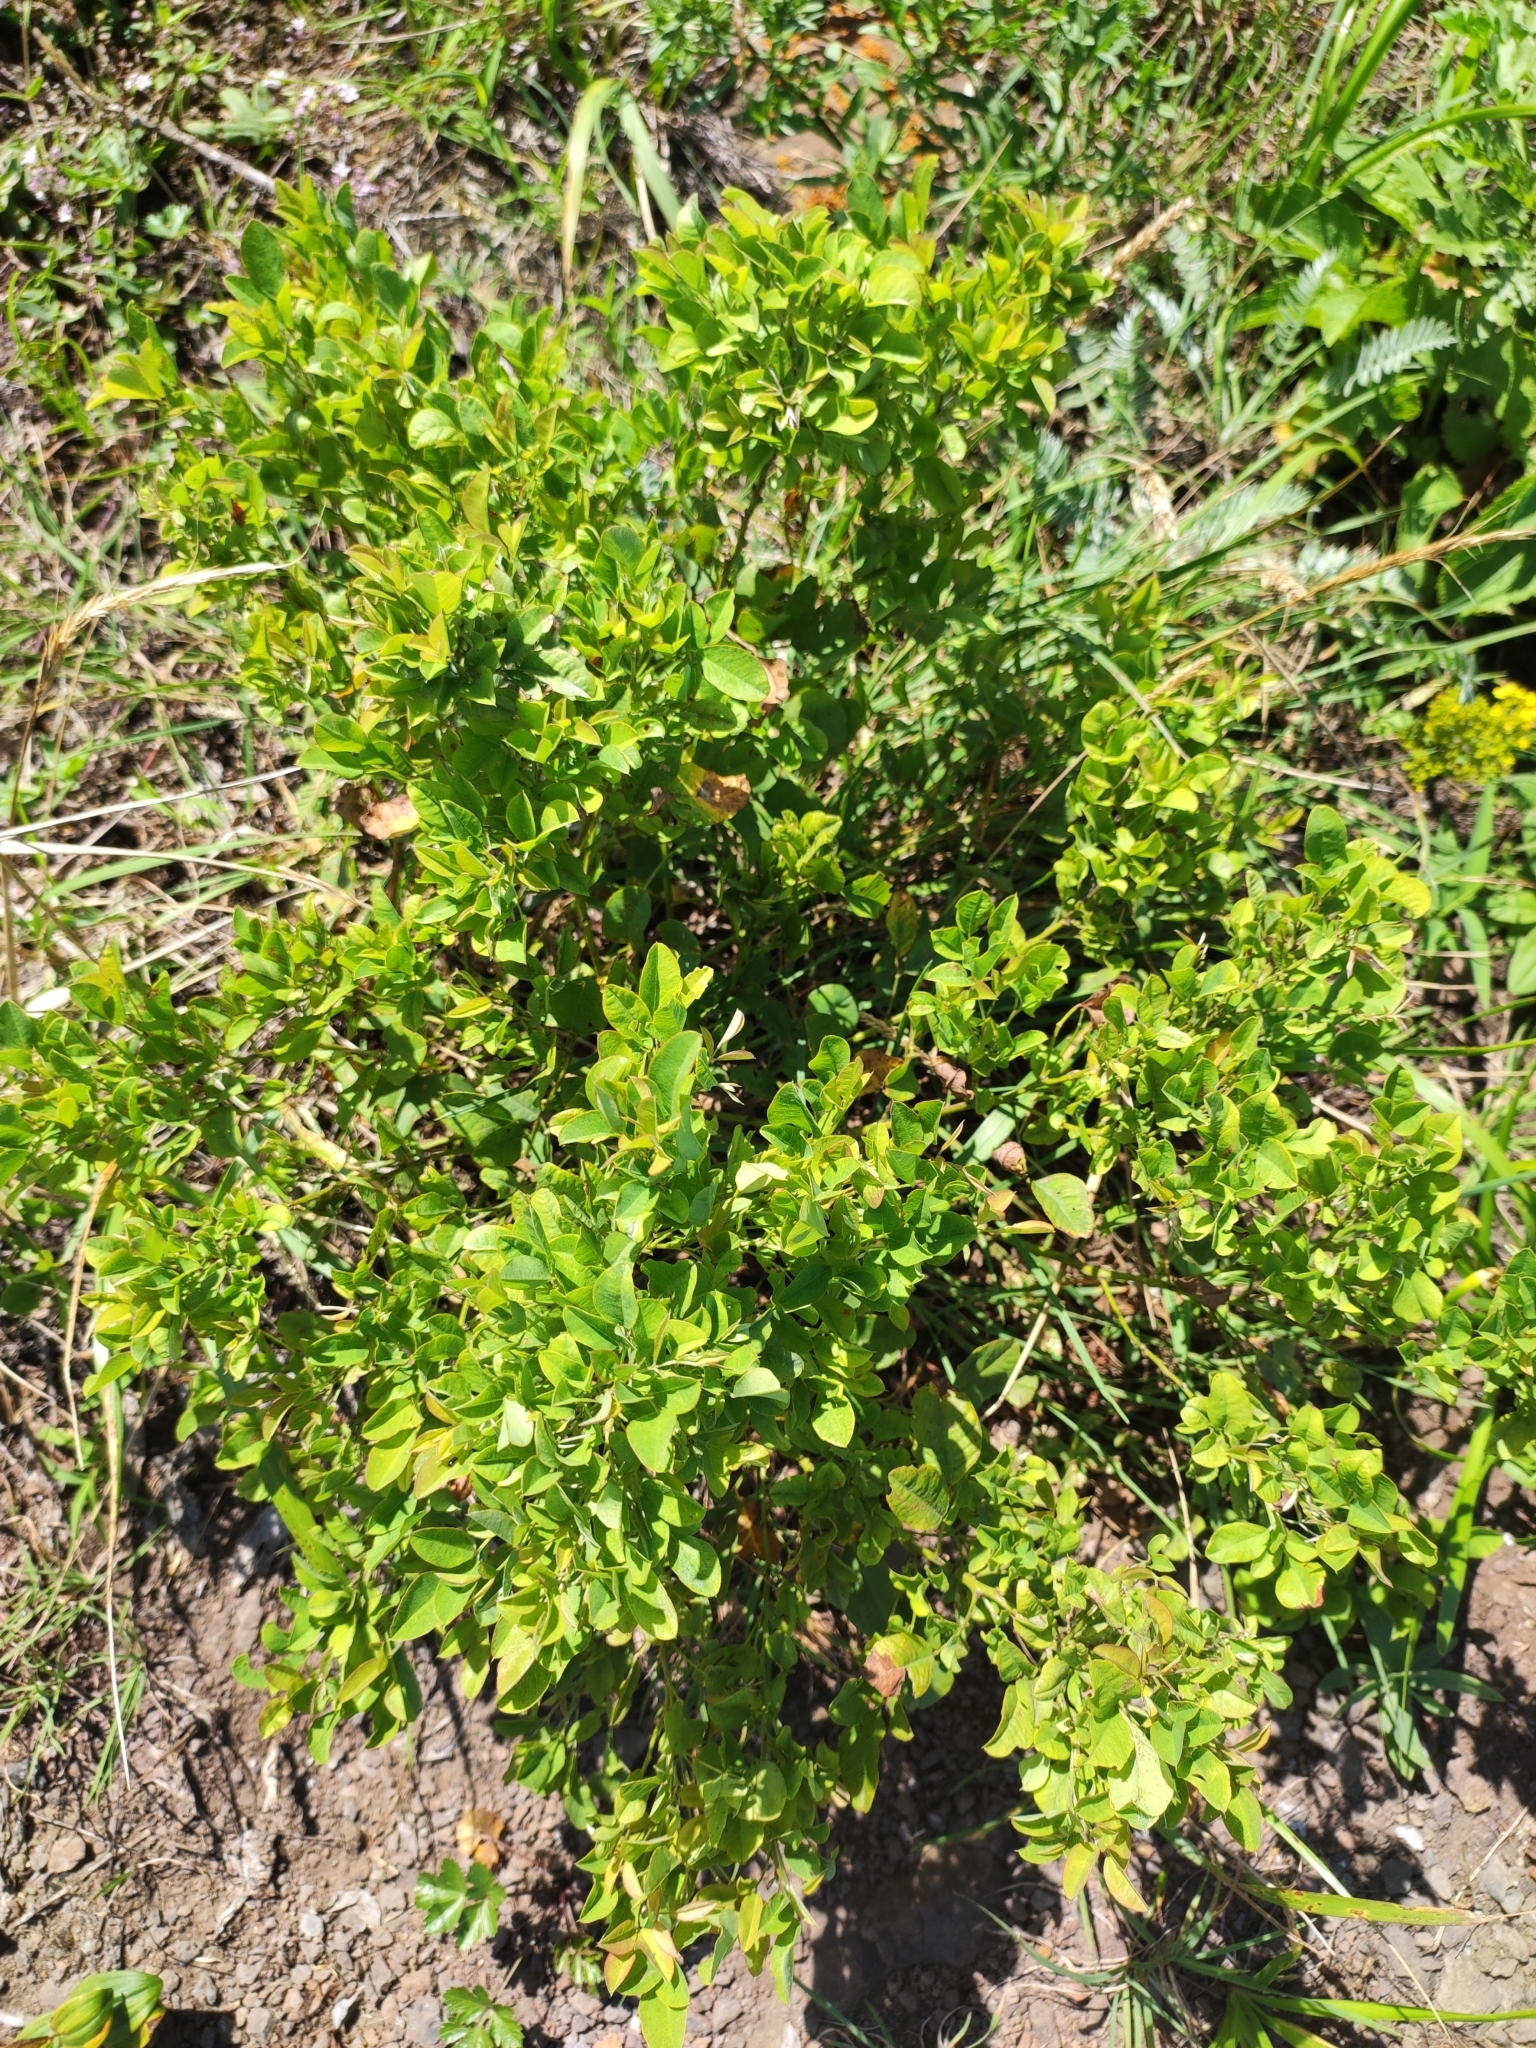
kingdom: Plantae
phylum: Tracheophyta
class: Magnoliopsida
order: Fabales
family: Fabaceae
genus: Lespedeza
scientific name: Lespedeza bicolor
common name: Shrub lespedeza
